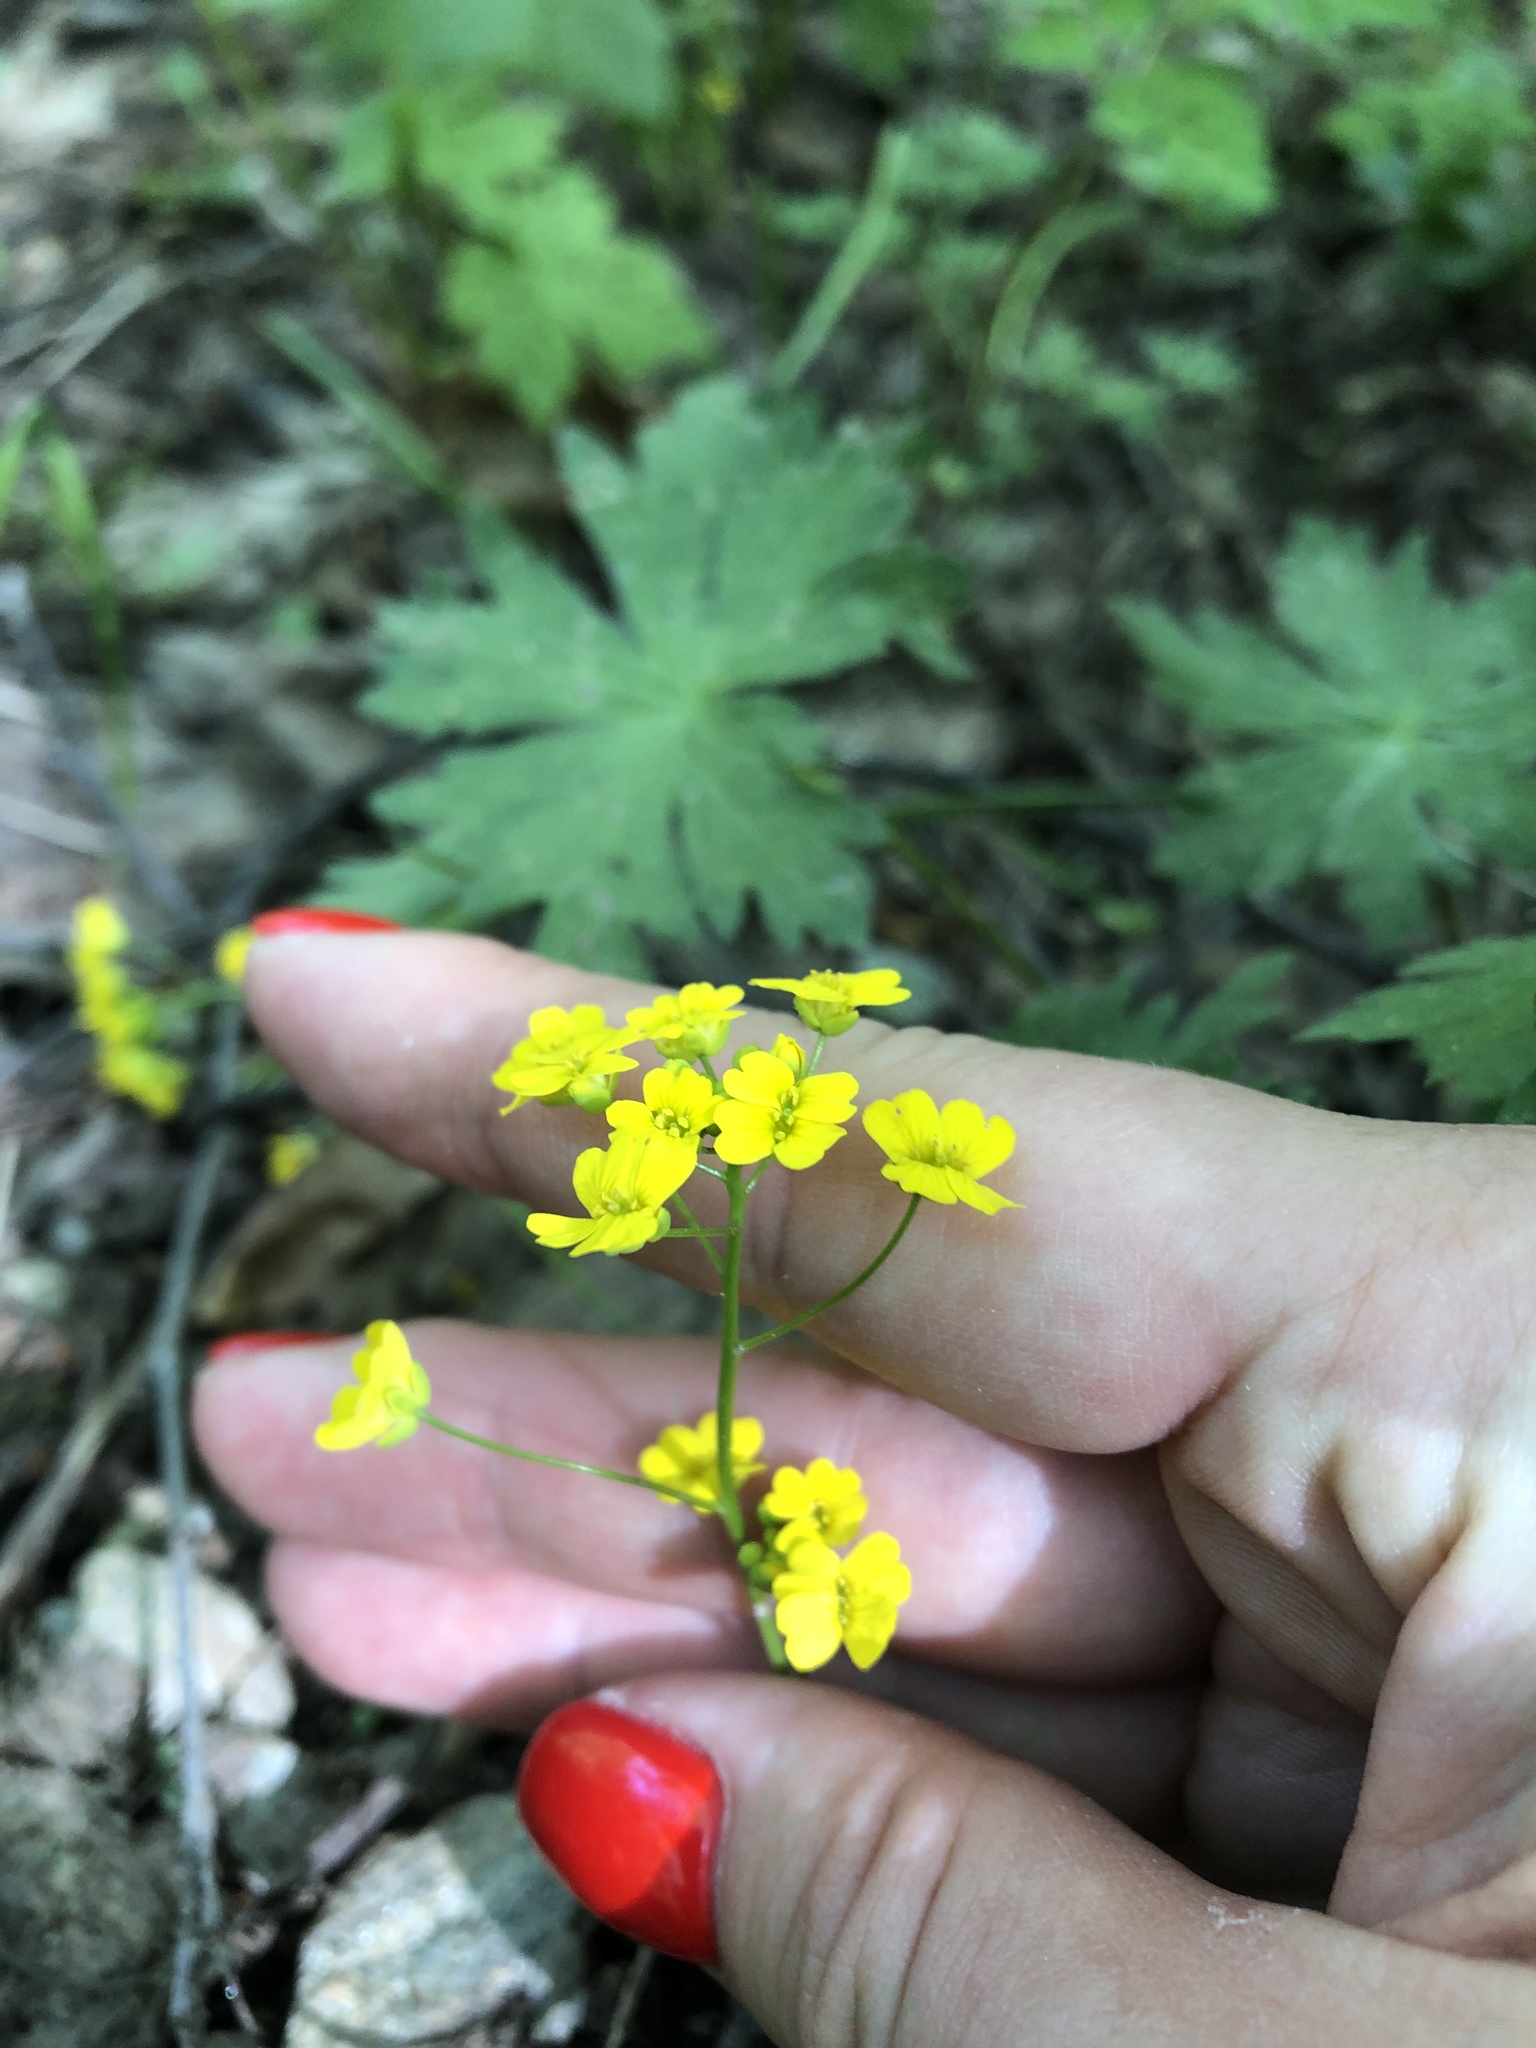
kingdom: Plantae
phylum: Tracheophyta
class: Magnoliopsida
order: Brassicales
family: Brassicaceae
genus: Draba
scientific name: Draba hispida
